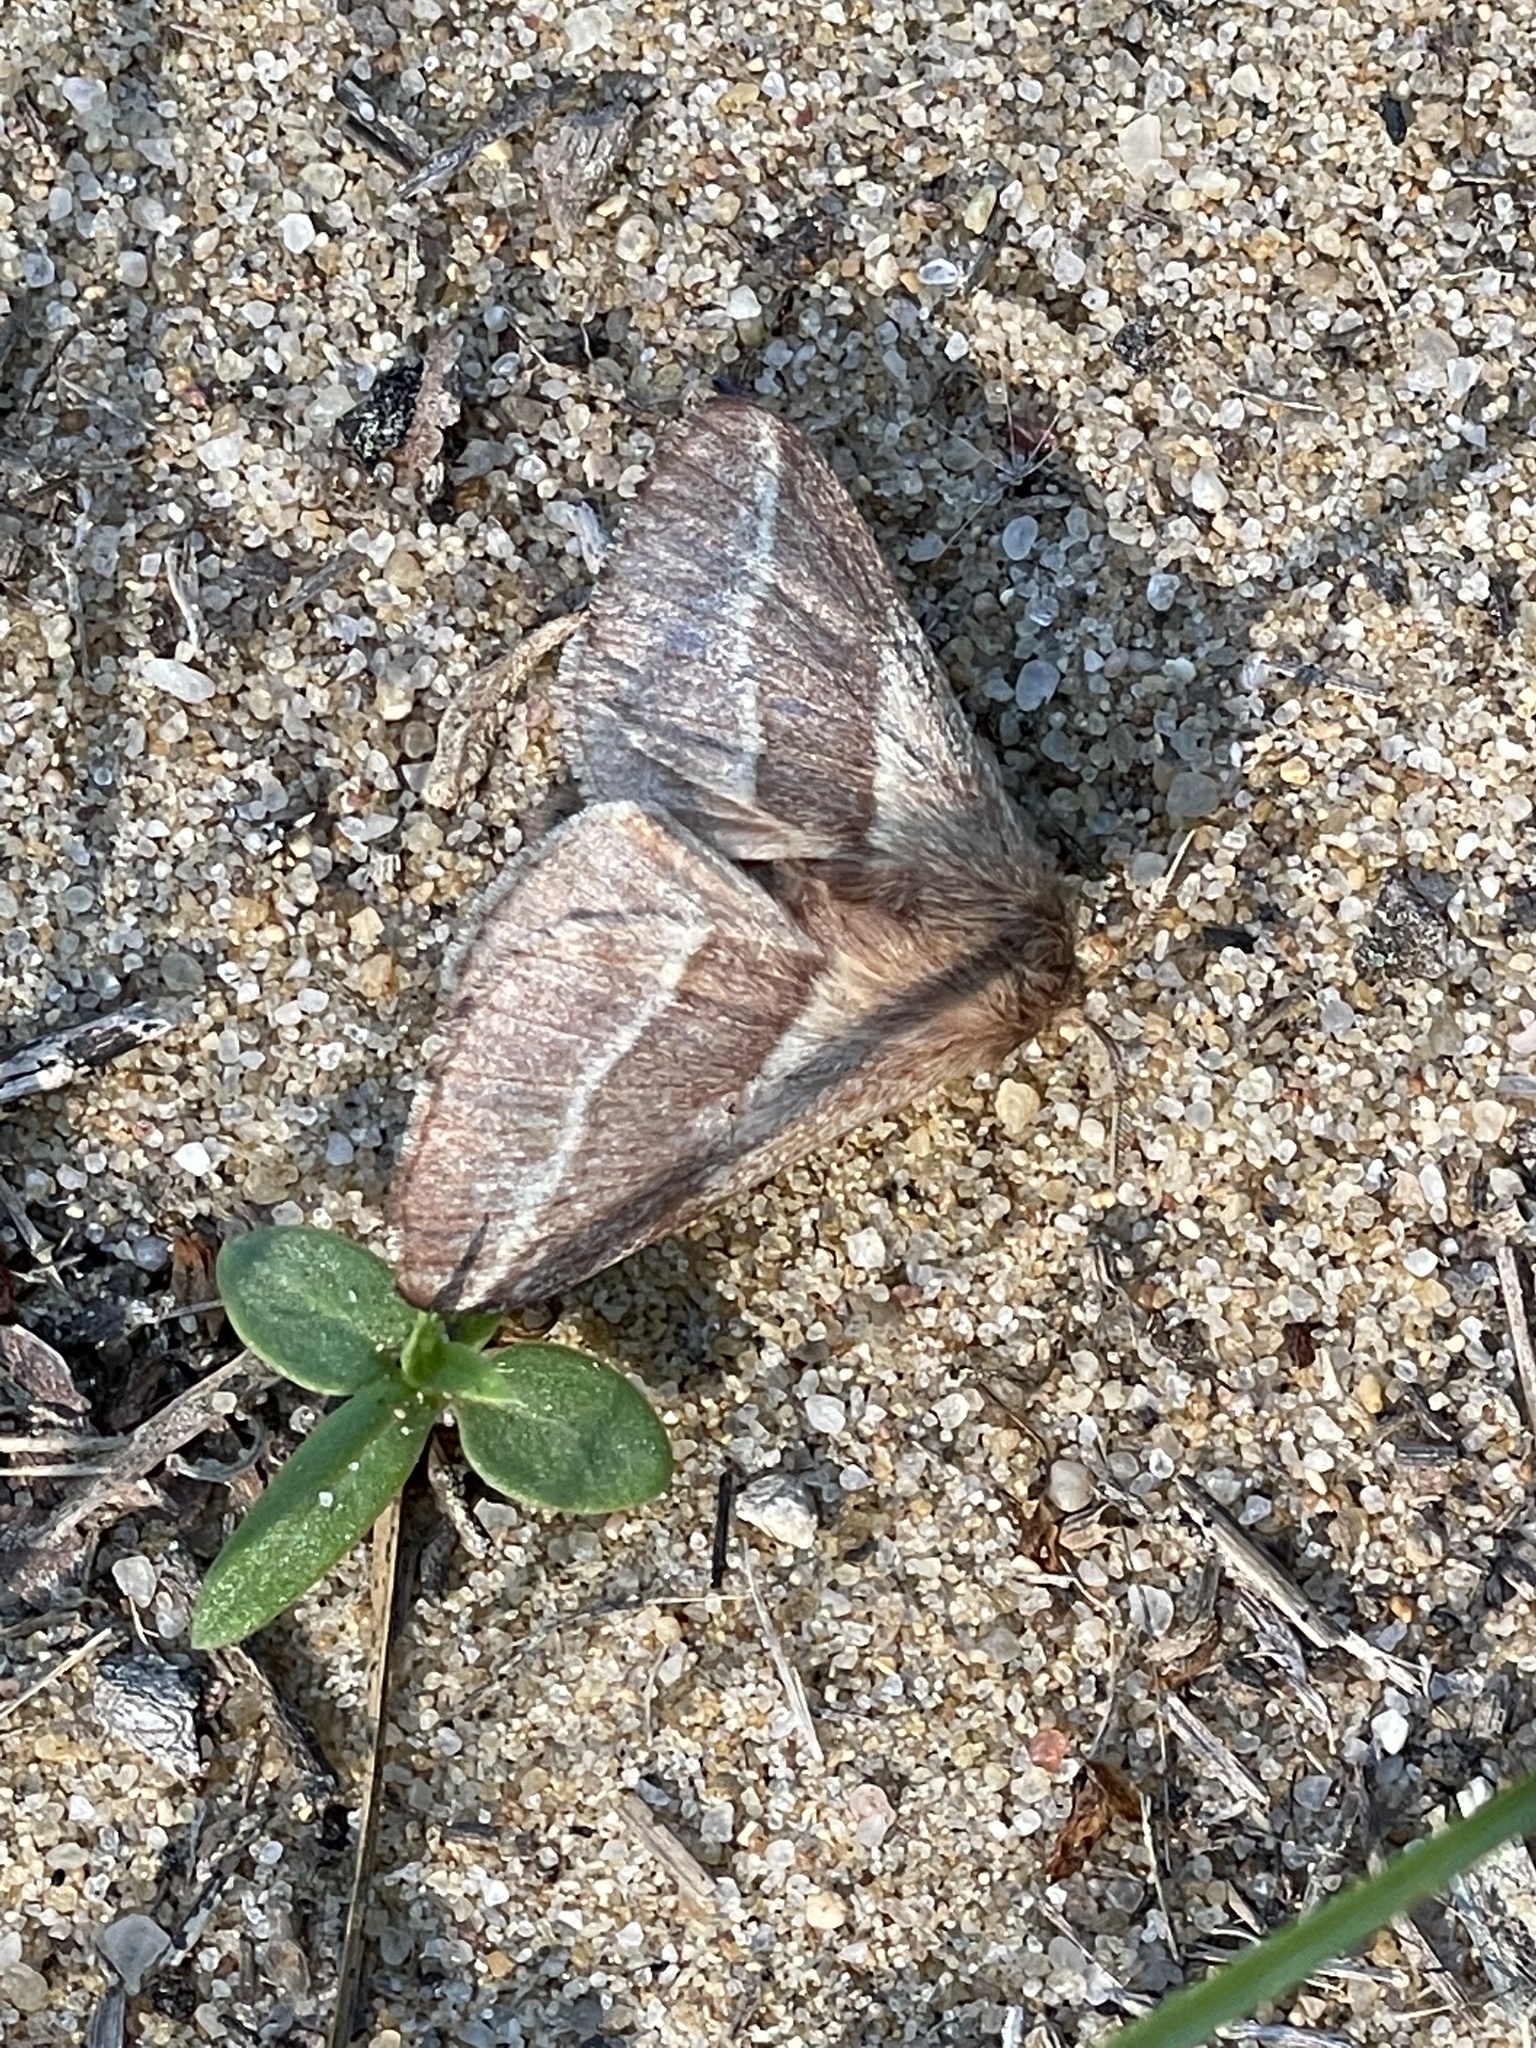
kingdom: Animalia
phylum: Arthropoda
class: Insecta
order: Lepidoptera
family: Lasiocampidae
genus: Malacosoma
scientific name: Malacosoma americana
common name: Eastern tent caterpillar moth
